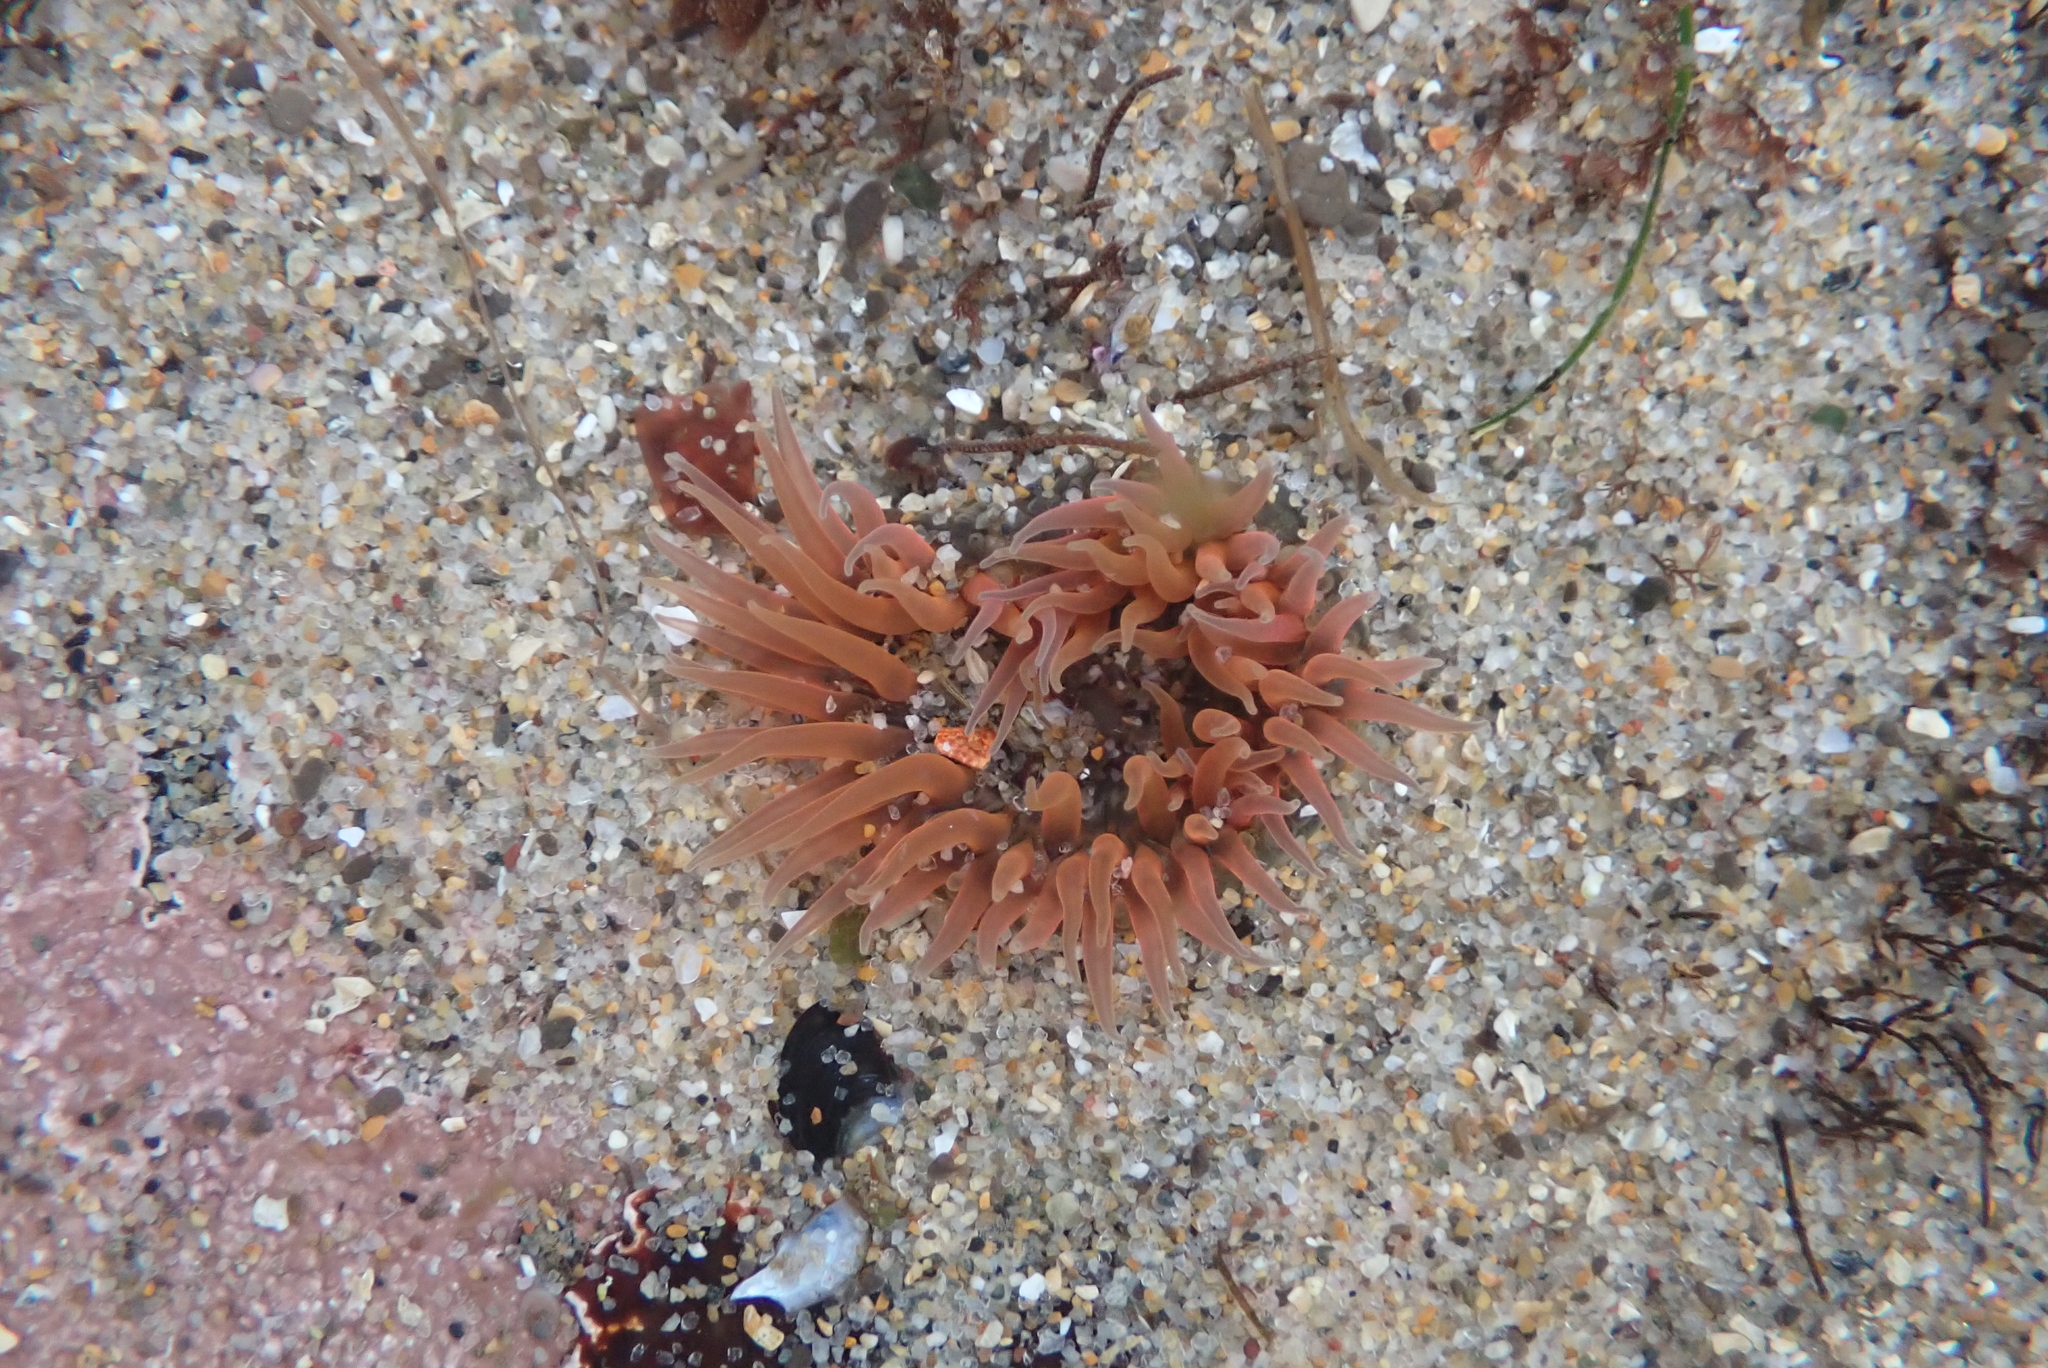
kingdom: Animalia
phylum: Cnidaria
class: Anthozoa
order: Actiniaria
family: Actiniidae
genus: Anthopleura
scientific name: Anthopleura artemisia
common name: Buried sea anemone
